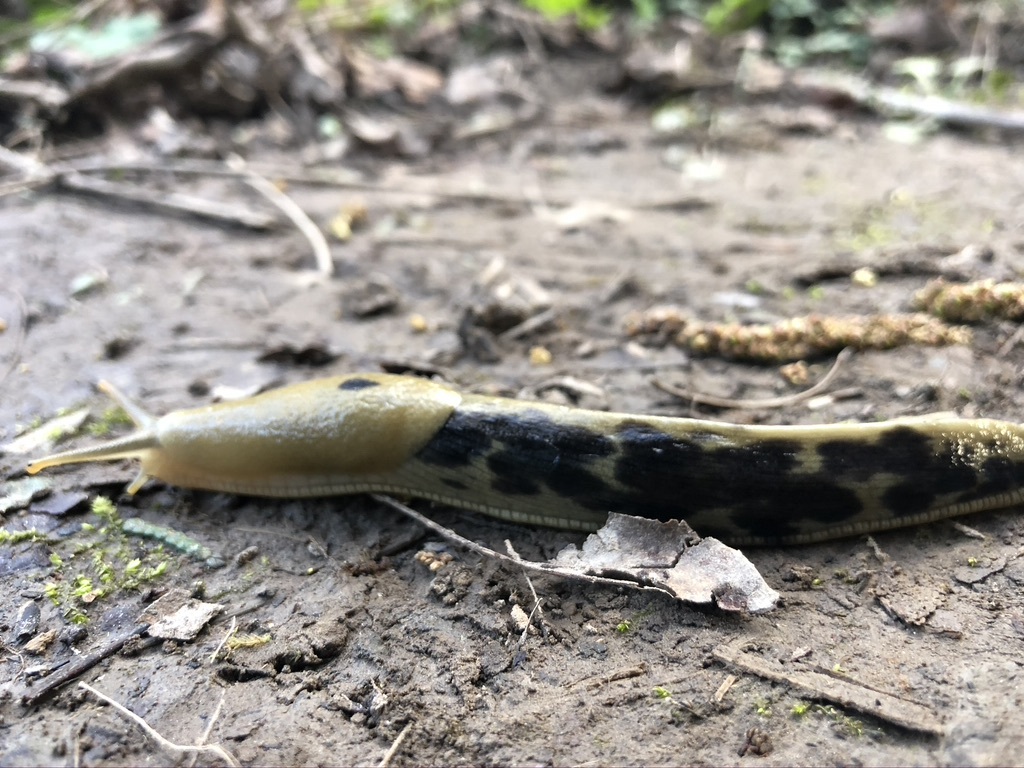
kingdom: Animalia
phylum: Mollusca
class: Gastropoda
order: Stylommatophora
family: Ariolimacidae
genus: Ariolimax
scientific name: Ariolimax columbianus
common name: Pacific banana slug
